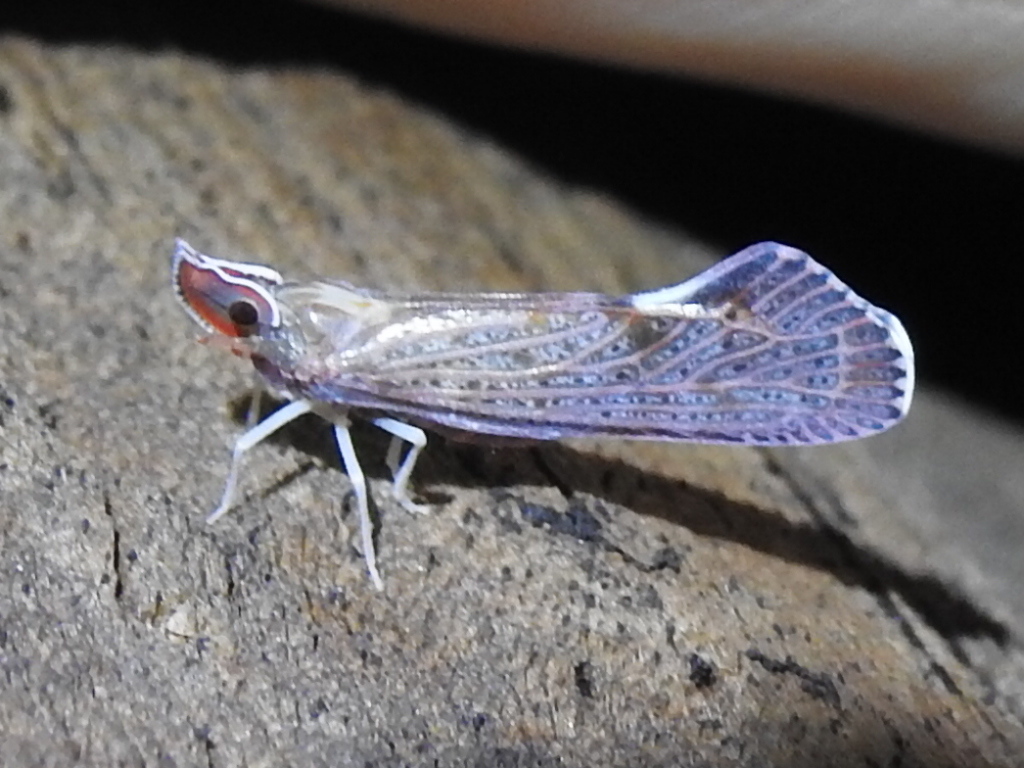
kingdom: Animalia
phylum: Arthropoda
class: Insecta
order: Hemiptera
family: Derbidae
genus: Apache
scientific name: Apache degeeri
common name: Red-fanned planthopper
